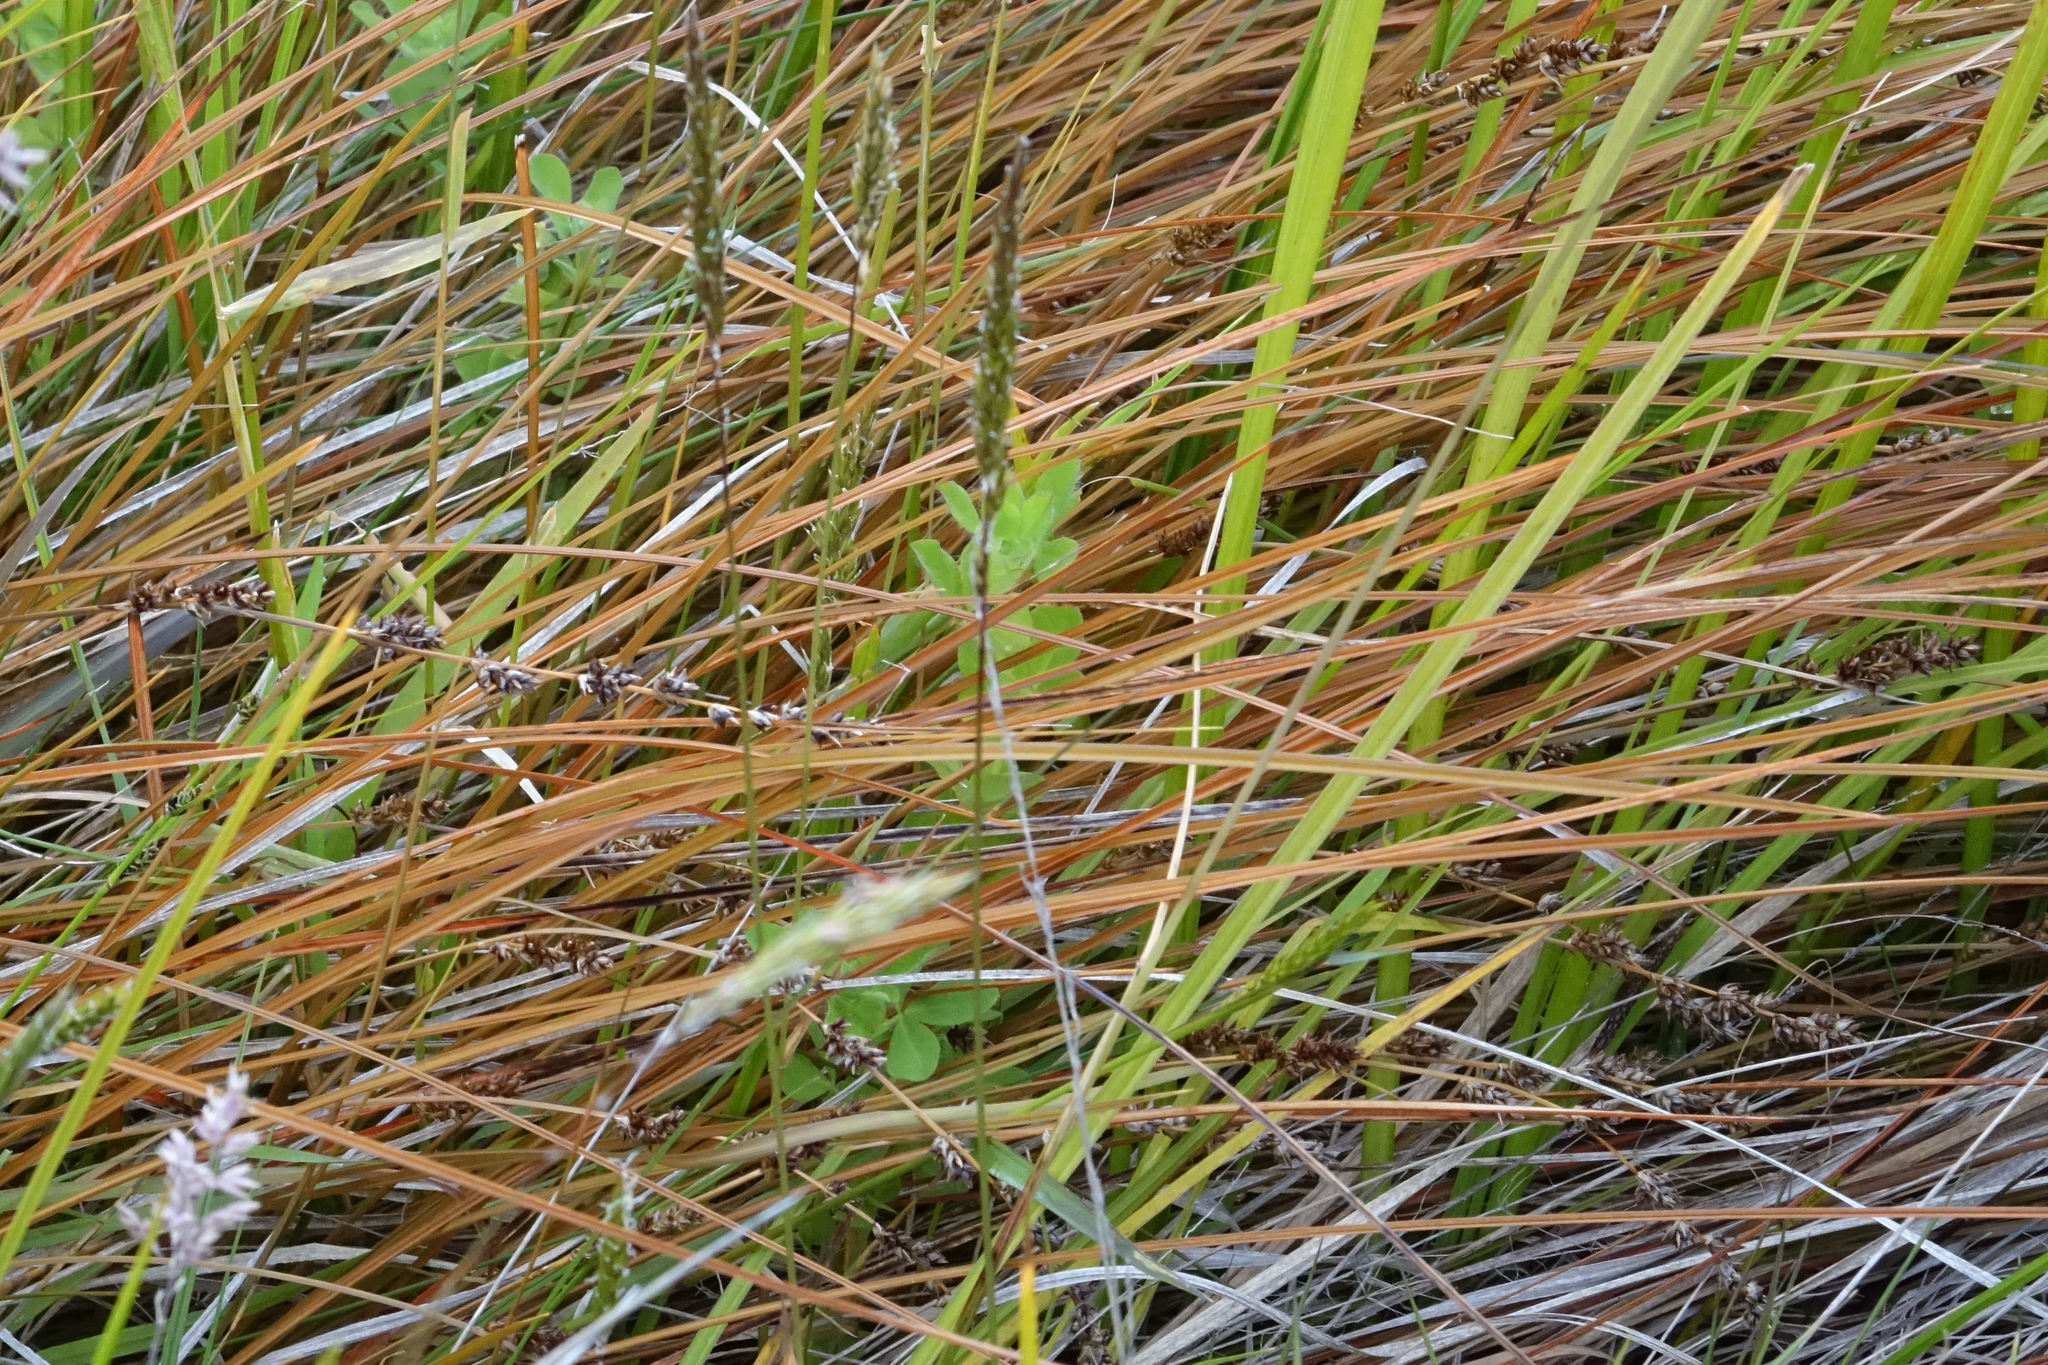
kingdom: Plantae
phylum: Tracheophyta
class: Liliopsida
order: Poales
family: Cyperaceae
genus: Carex
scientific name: Carex tenuiculmis
